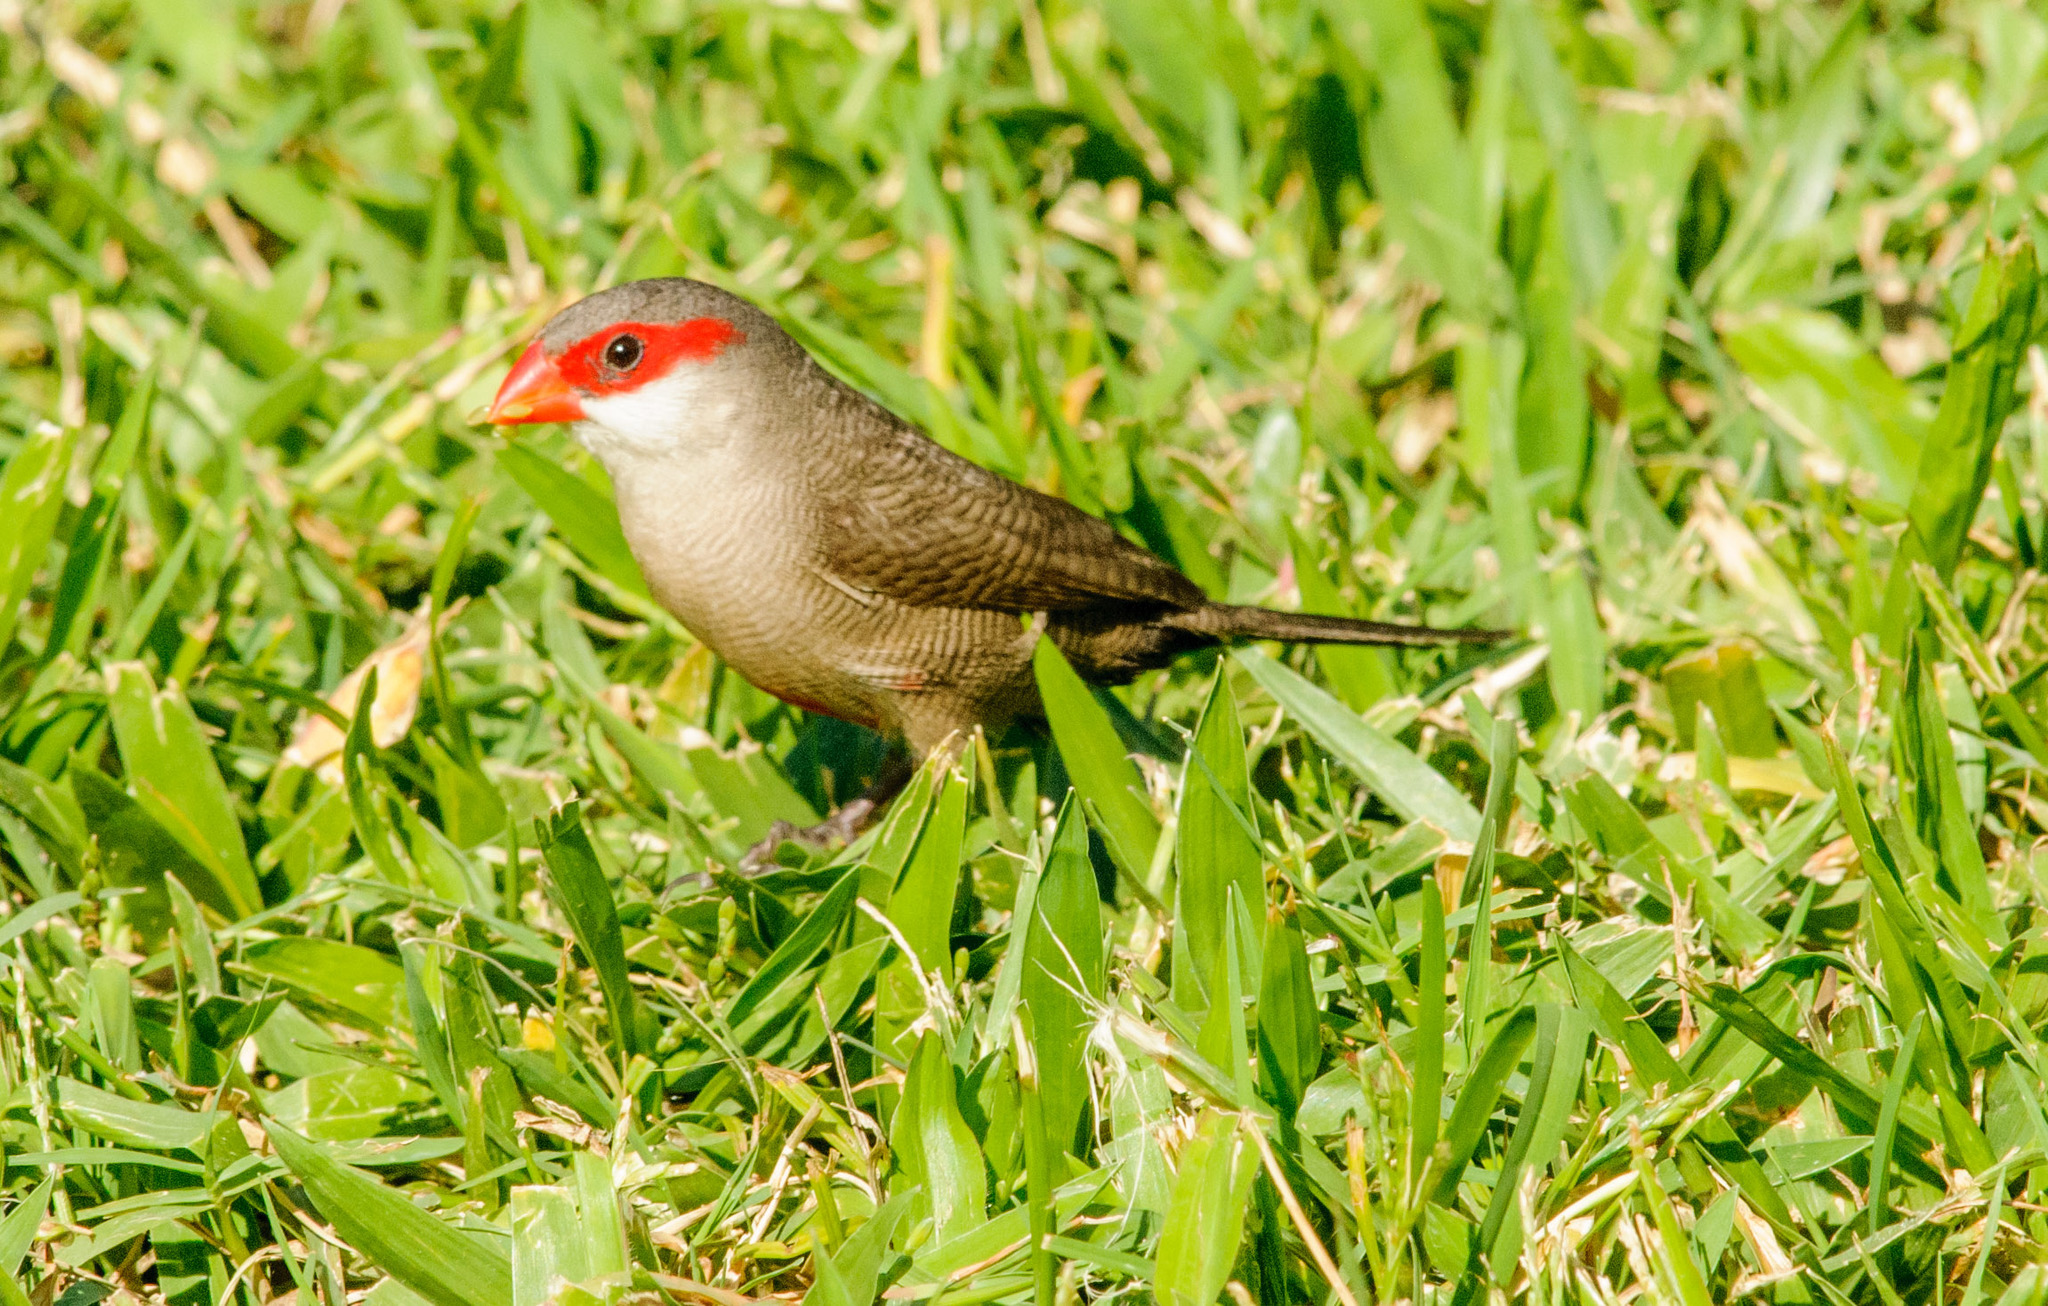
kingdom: Animalia
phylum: Chordata
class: Aves
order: Passeriformes
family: Estrildidae
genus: Estrilda
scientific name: Estrilda astrild
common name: Common waxbill
